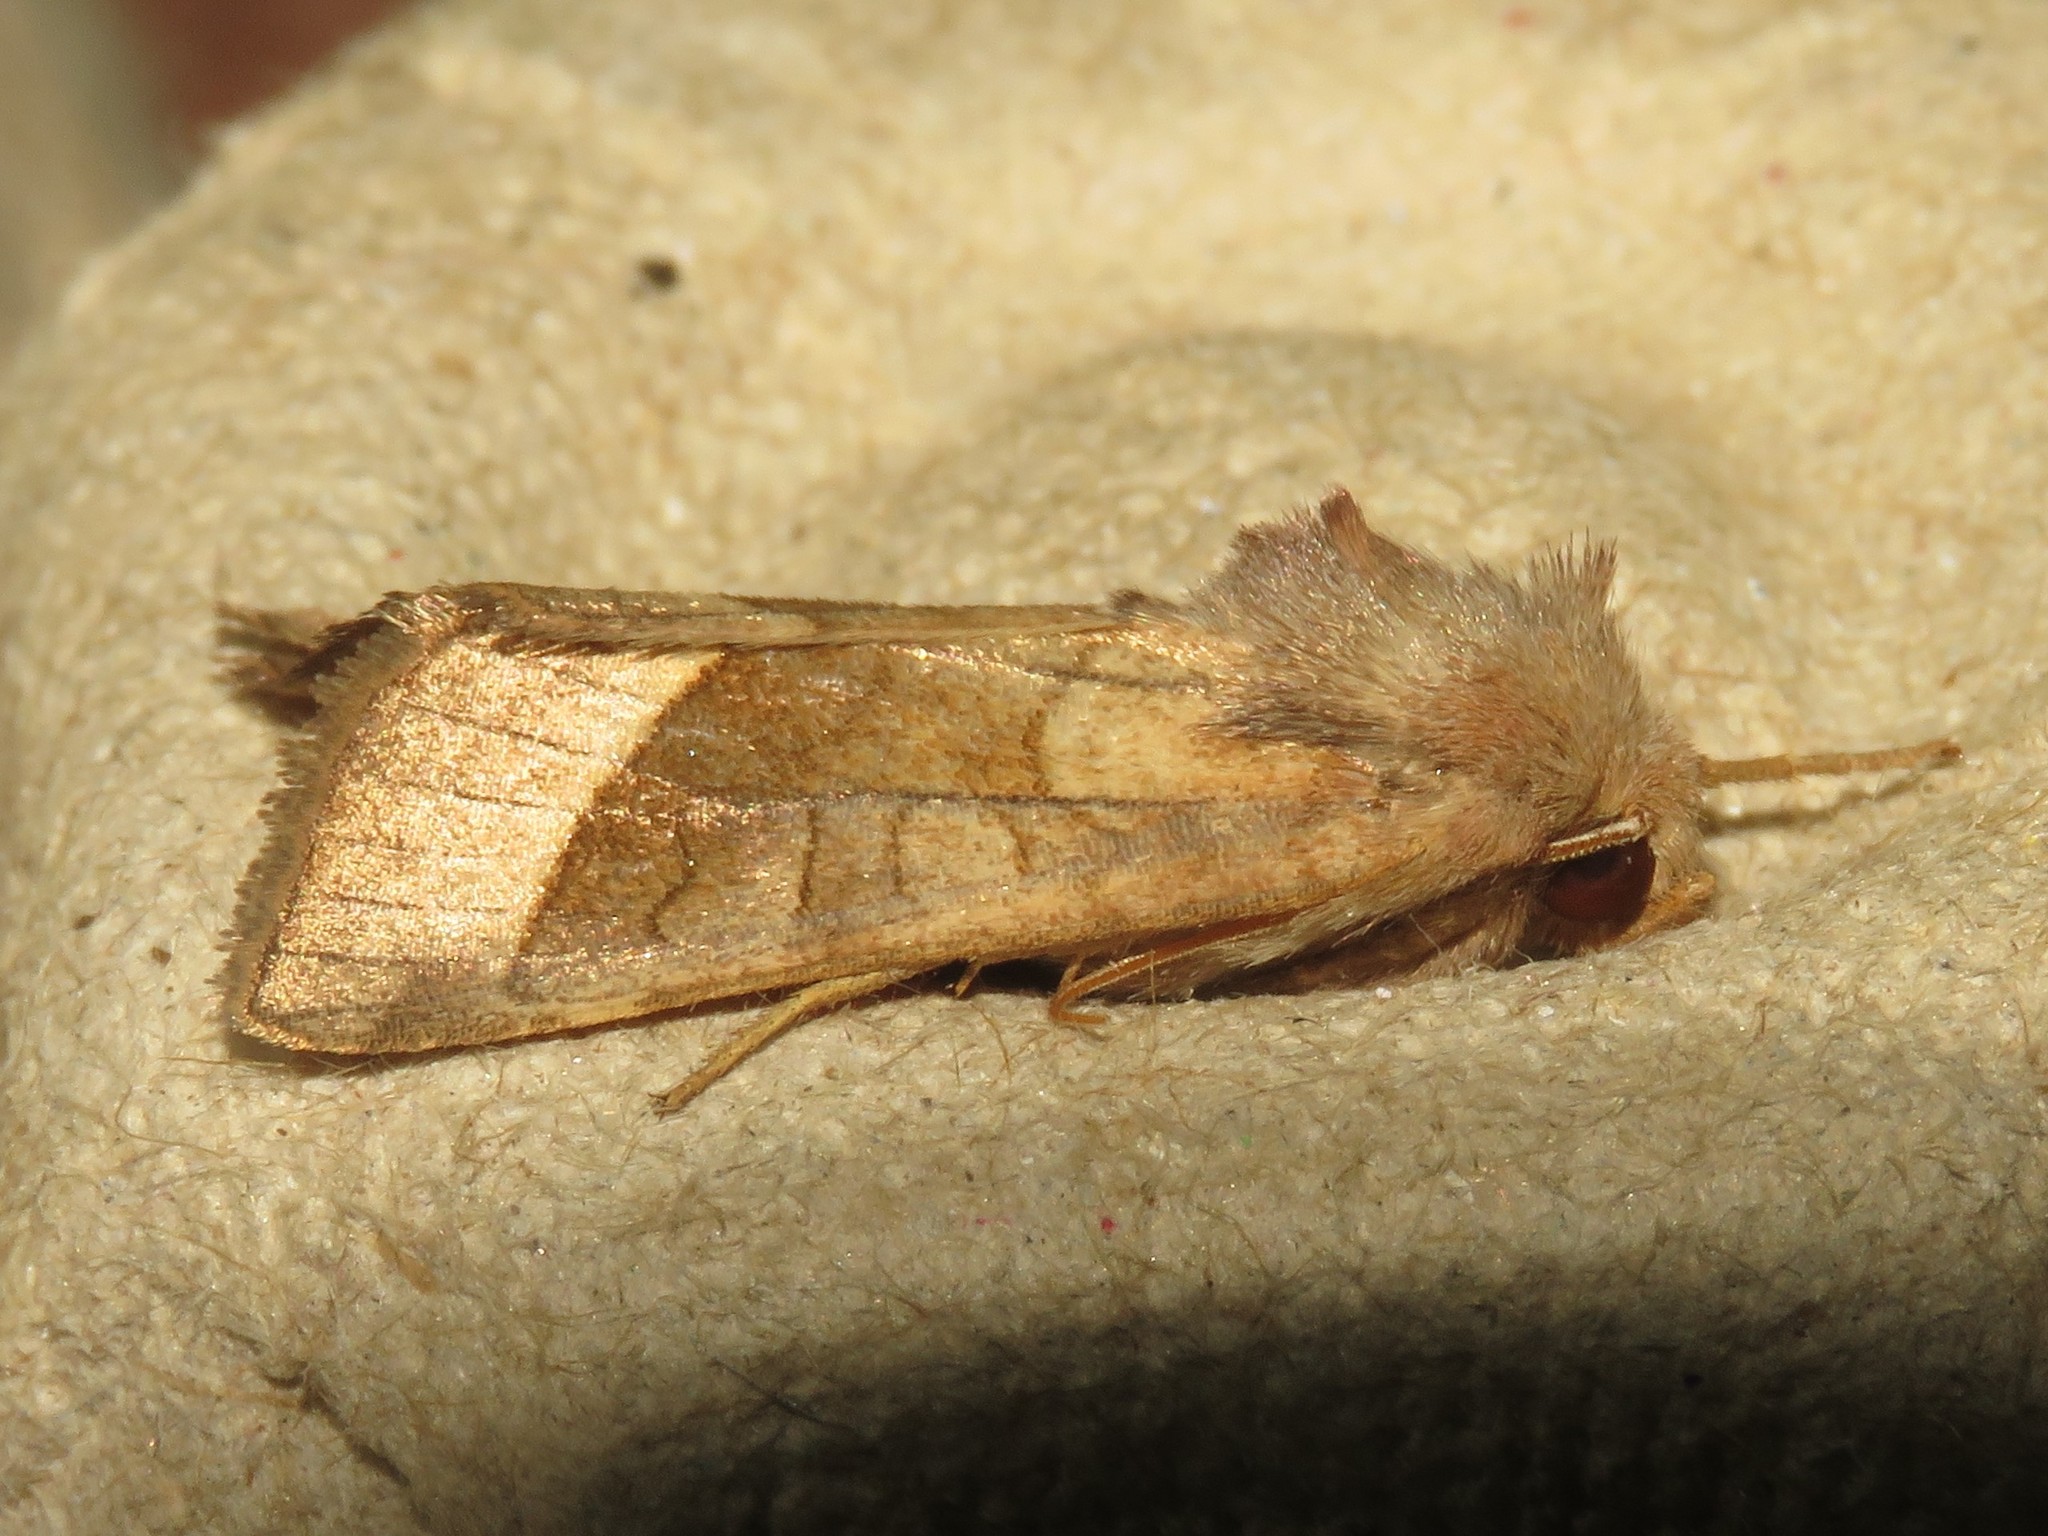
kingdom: Animalia
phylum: Arthropoda
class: Insecta
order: Lepidoptera
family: Noctuidae
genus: Hydraecia
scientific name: Hydraecia micacea
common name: Rosy rustic
